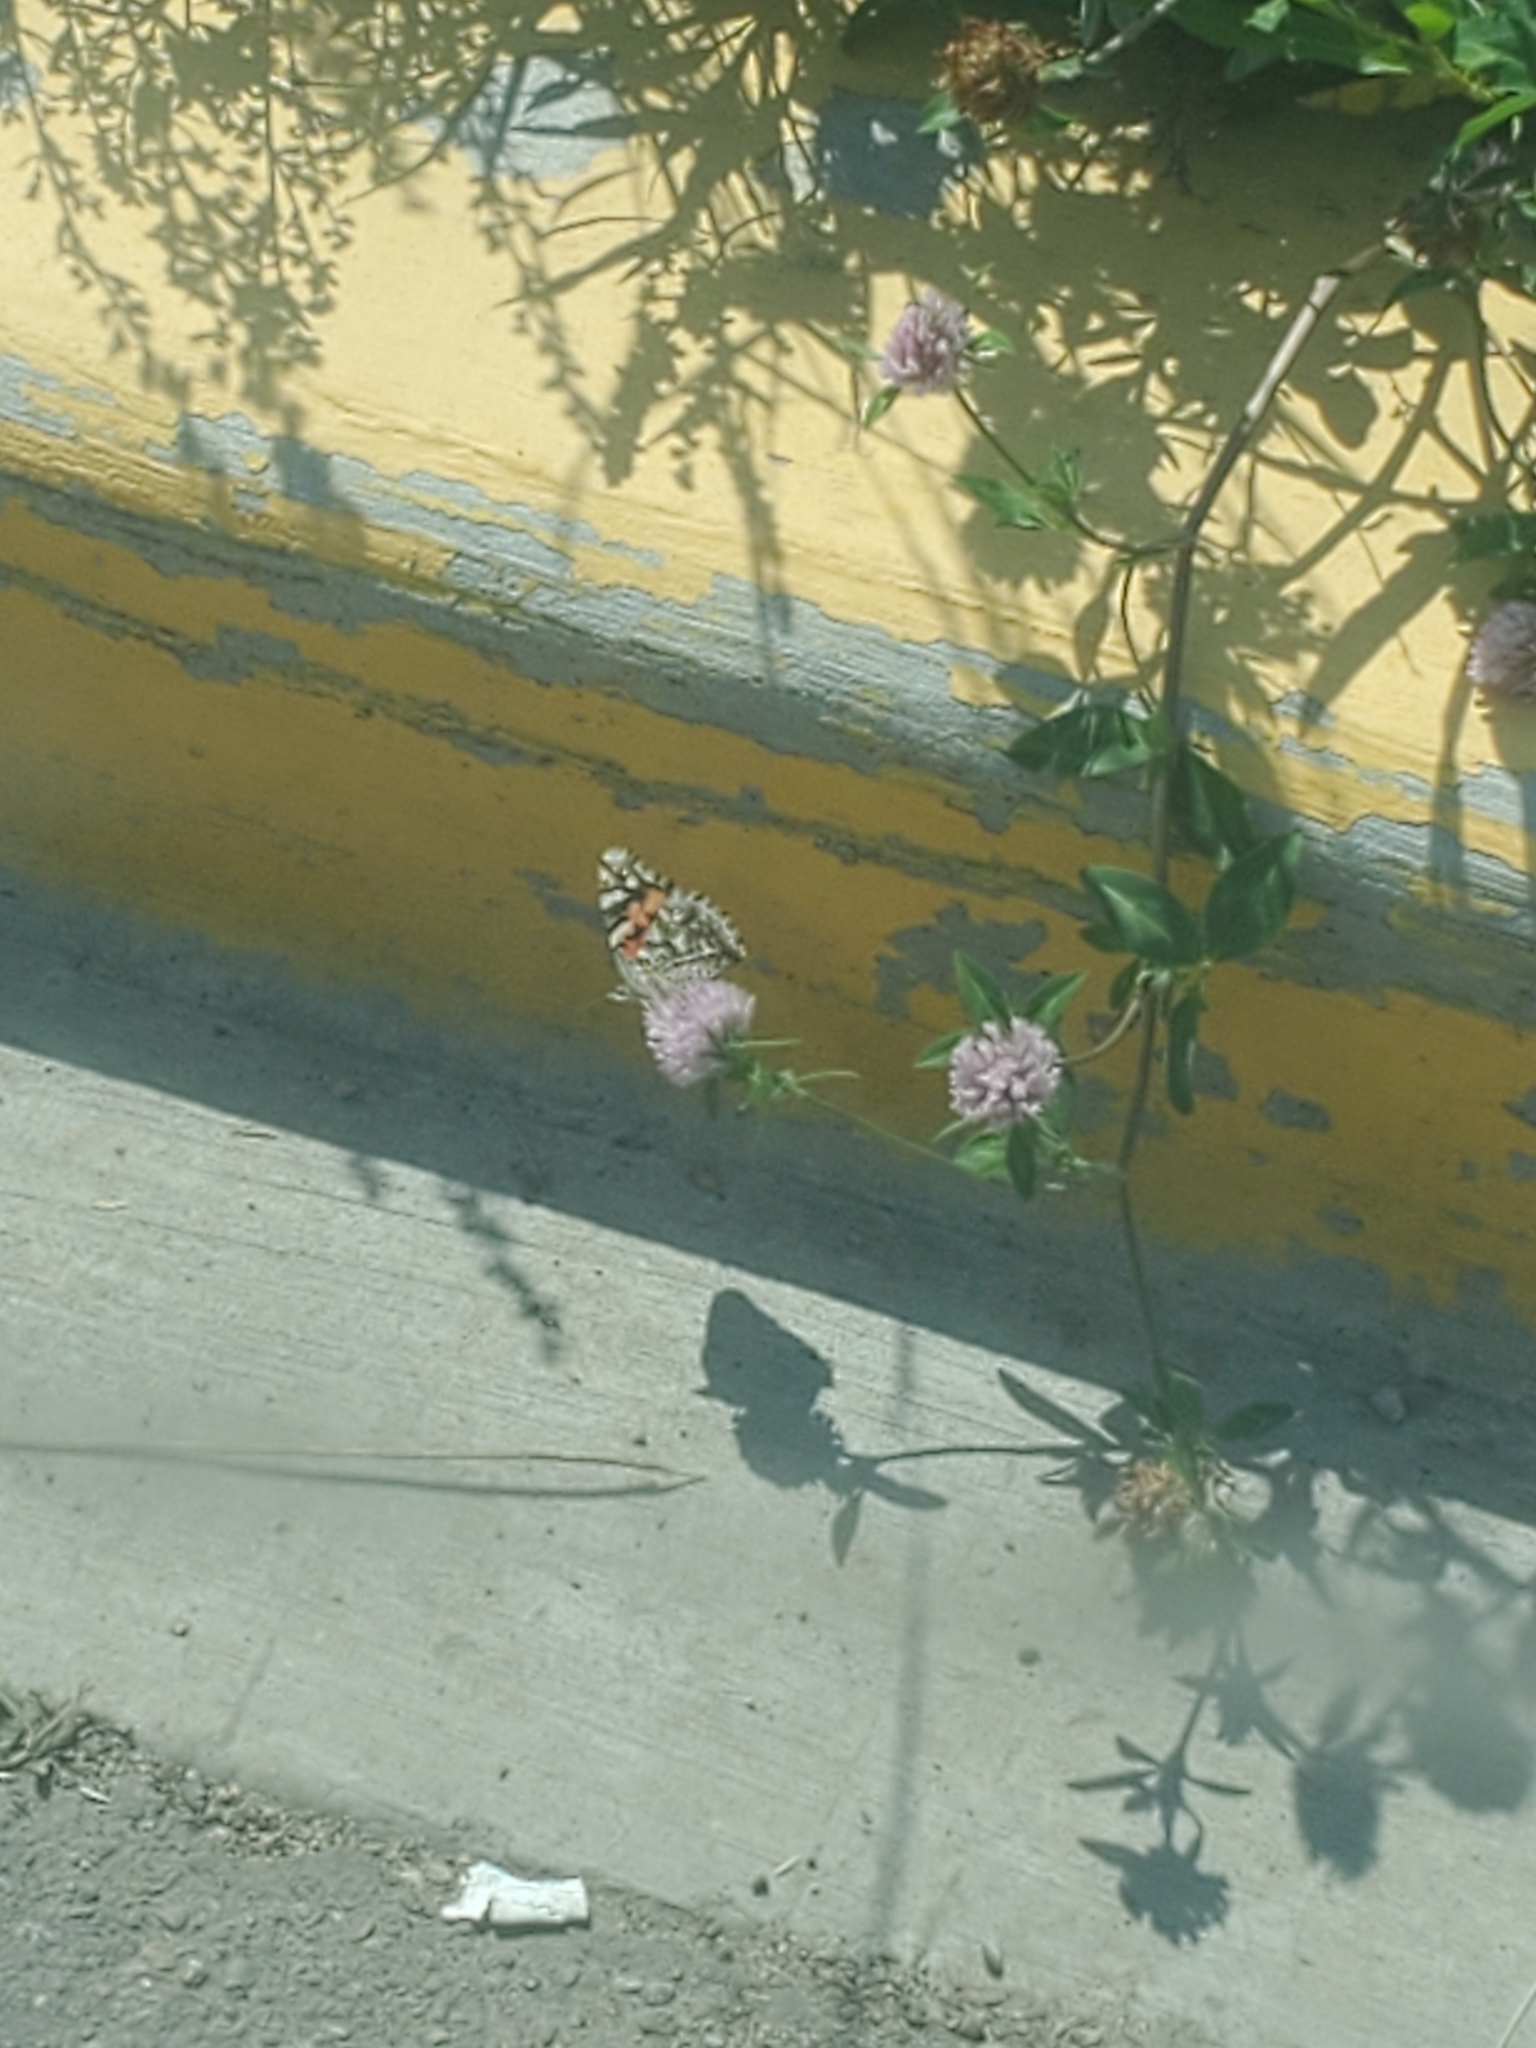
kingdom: Animalia
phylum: Arthropoda
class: Insecta
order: Lepidoptera
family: Nymphalidae
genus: Vanessa
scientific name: Vanessa cardui
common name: Painted lady
